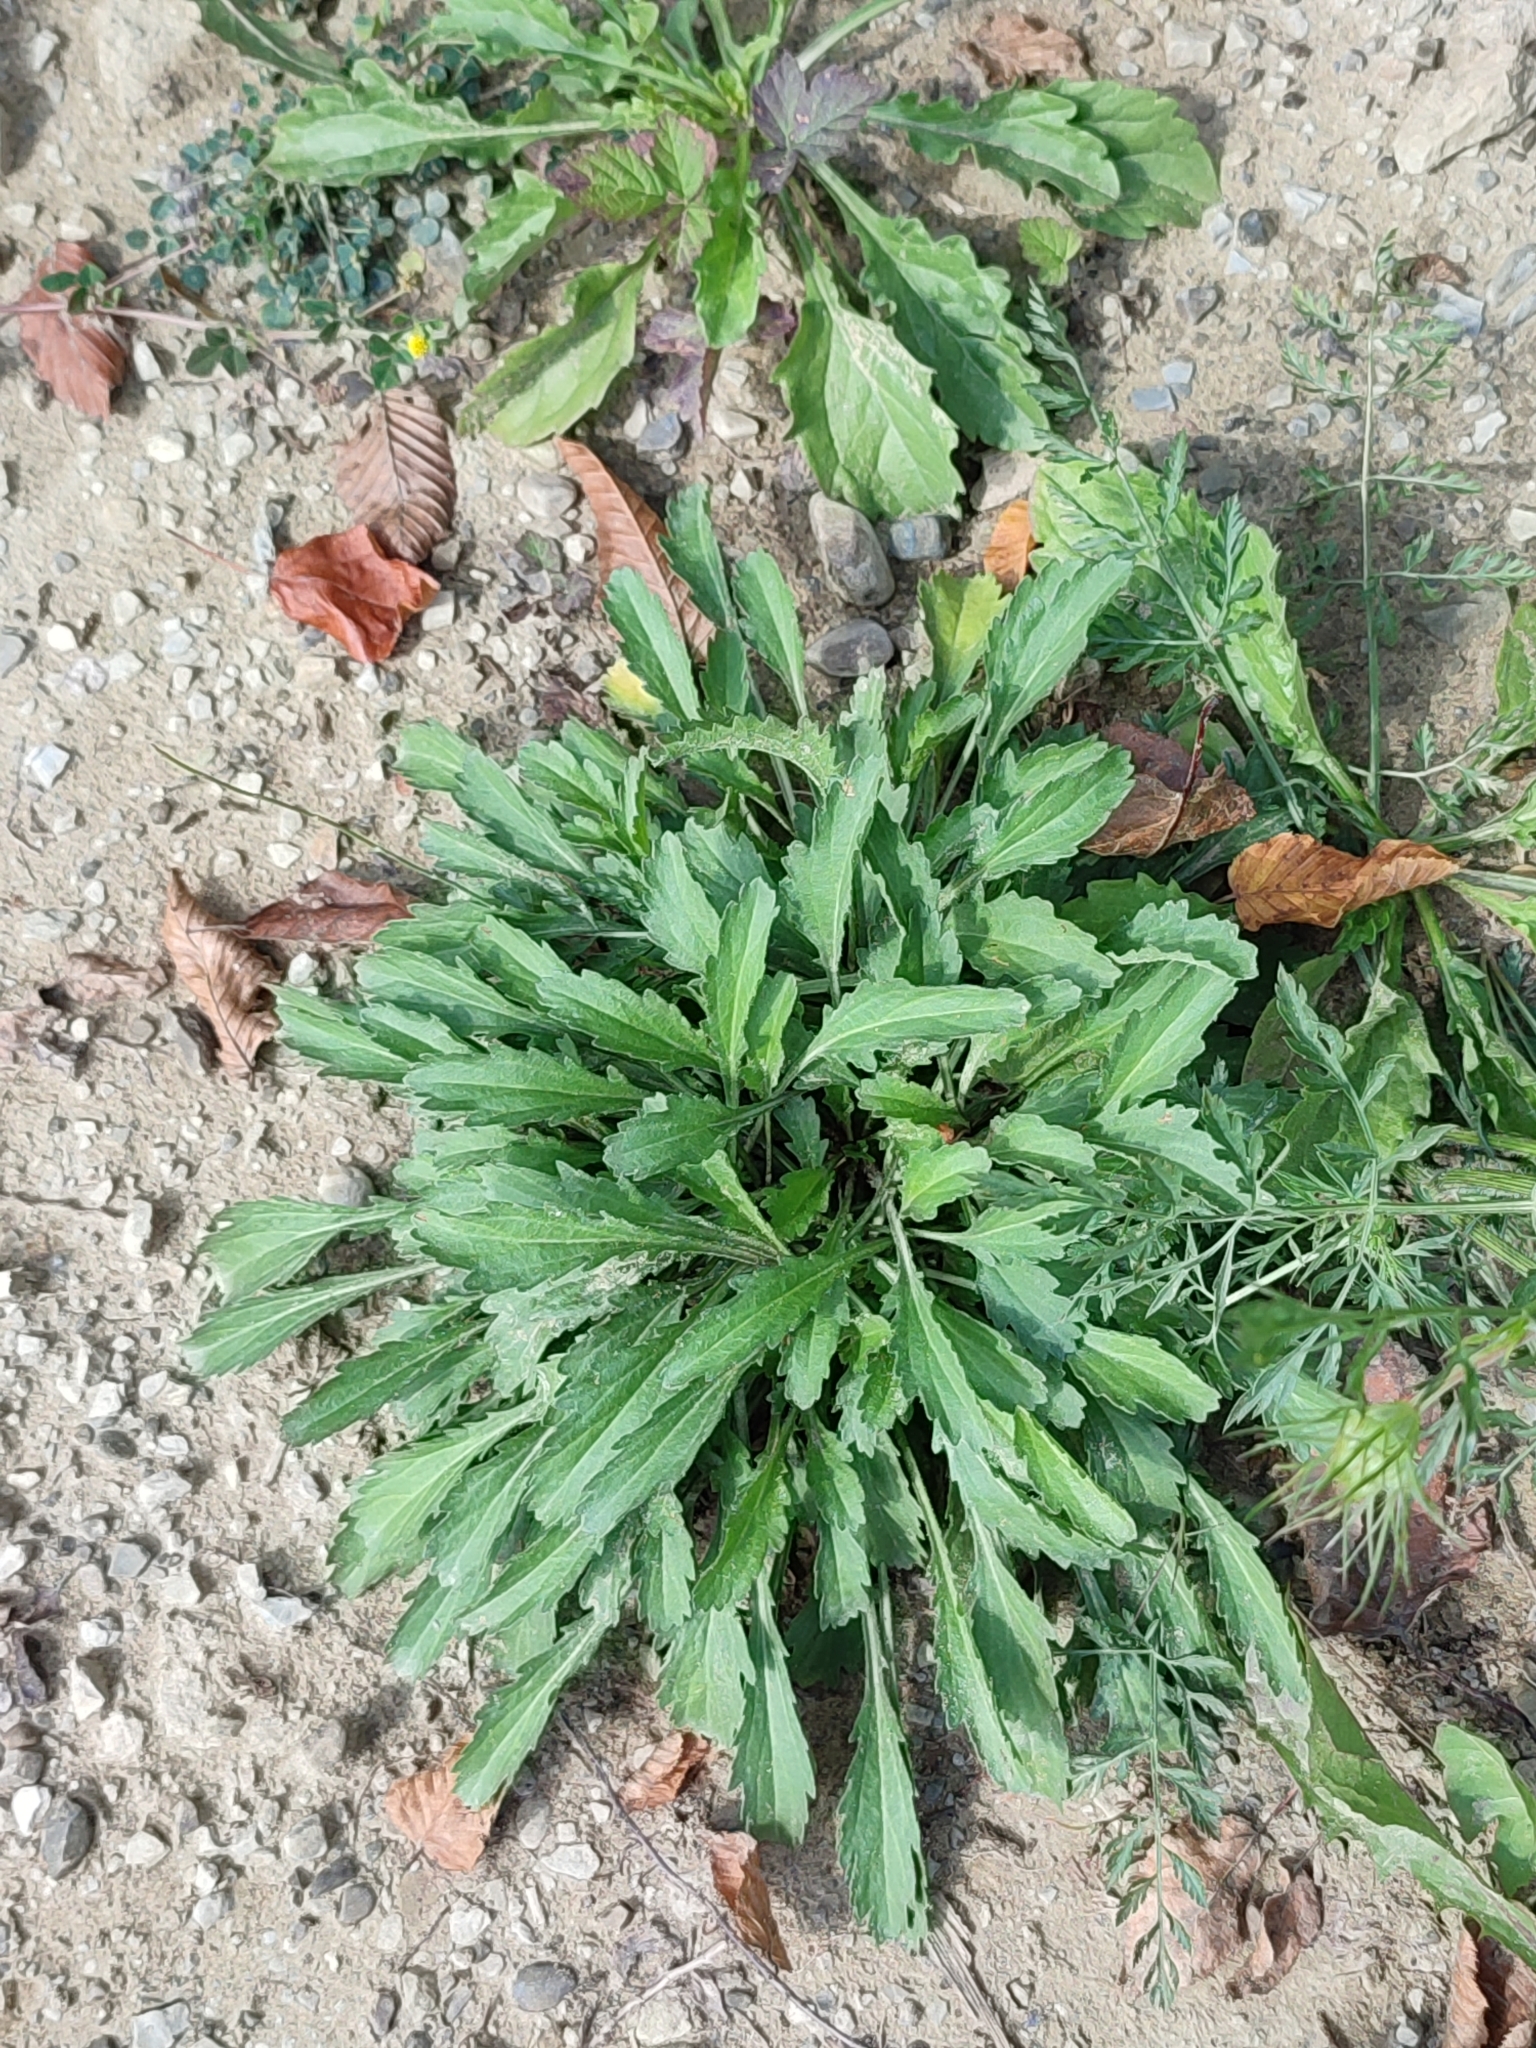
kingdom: Plantae
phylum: Tracheophyta
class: Magnoliopsida
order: Asterales
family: Asteraceae
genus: Leucanthemum
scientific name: Leucanthemum vulgare
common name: Oxeye daisy
